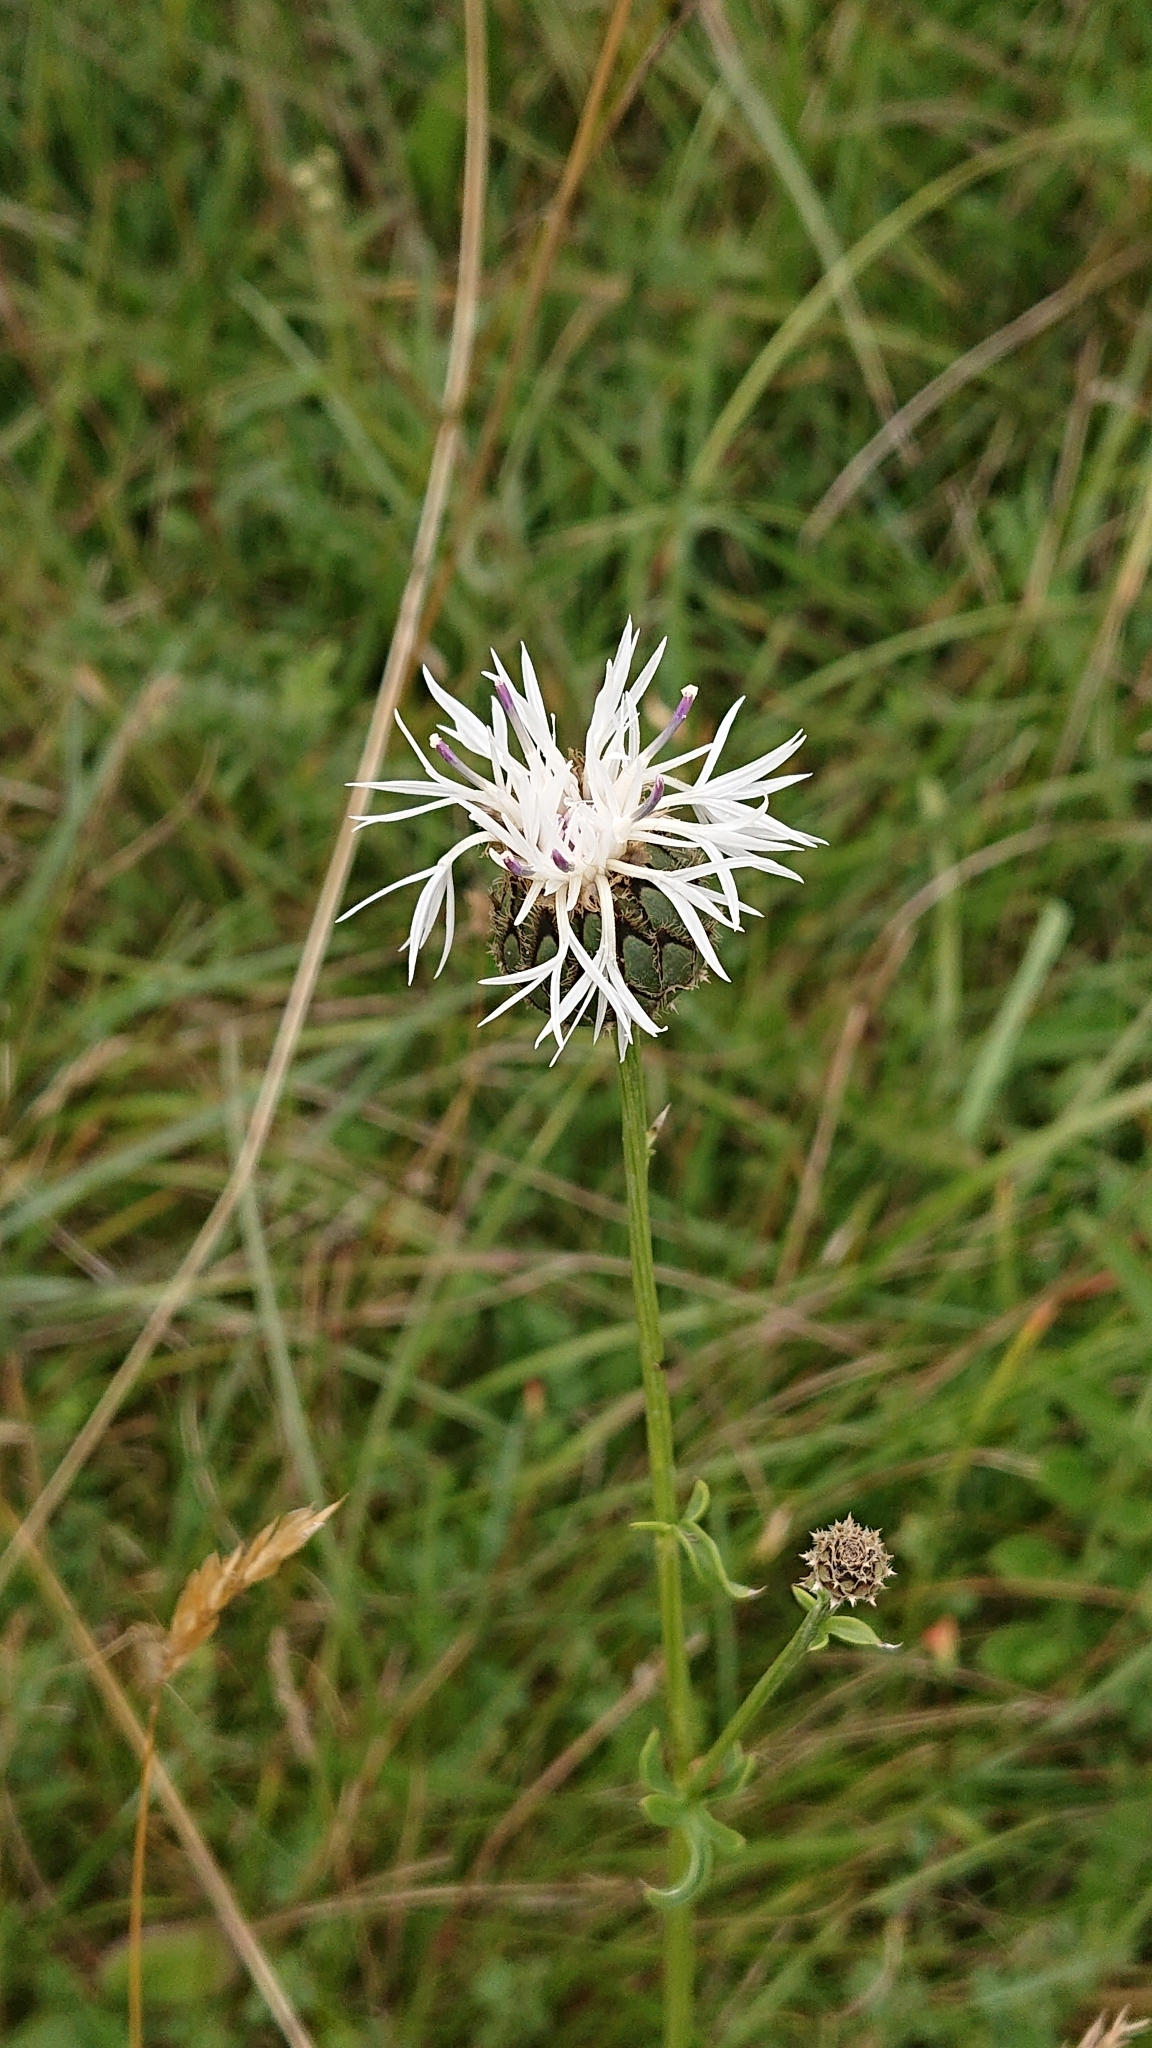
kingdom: Plantae
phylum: Tracheophyta
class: Magnoliopsida
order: Asterales
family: Asteraceae
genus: Centaurea
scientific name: Centaurea scabiosa
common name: Greater knapweed
